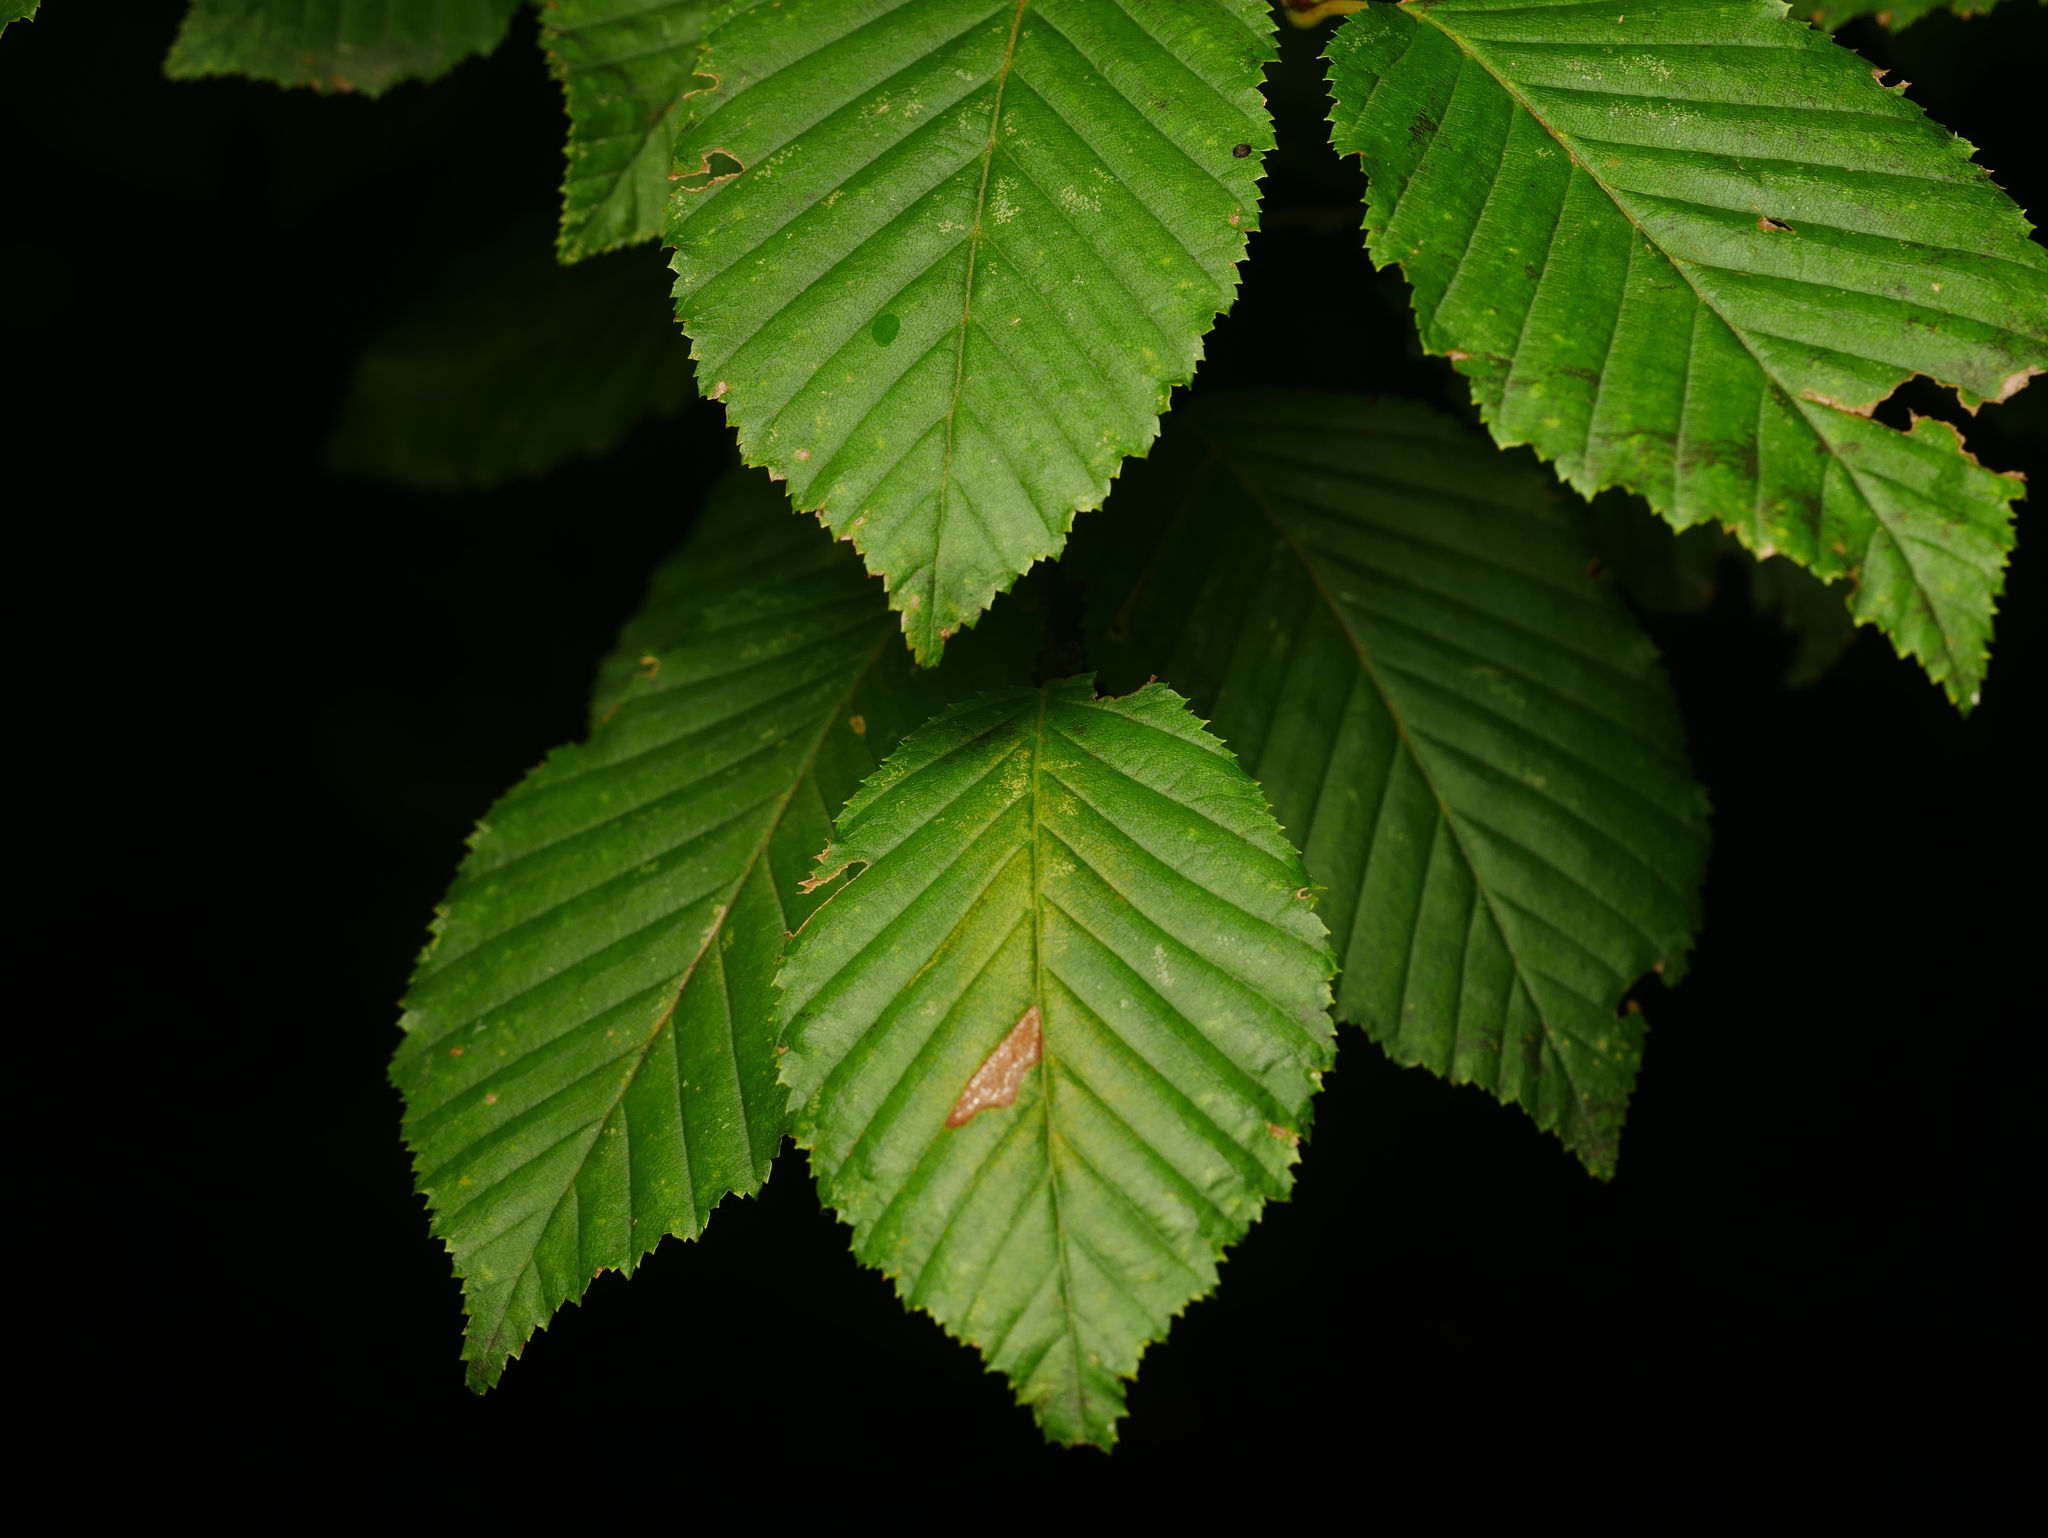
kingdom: Plantae
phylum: Tracheophyta
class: Magnoliopsida
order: Fagales
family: Betulaceae
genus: Carpinus
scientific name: Carpinus betulus
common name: Hornbeam
